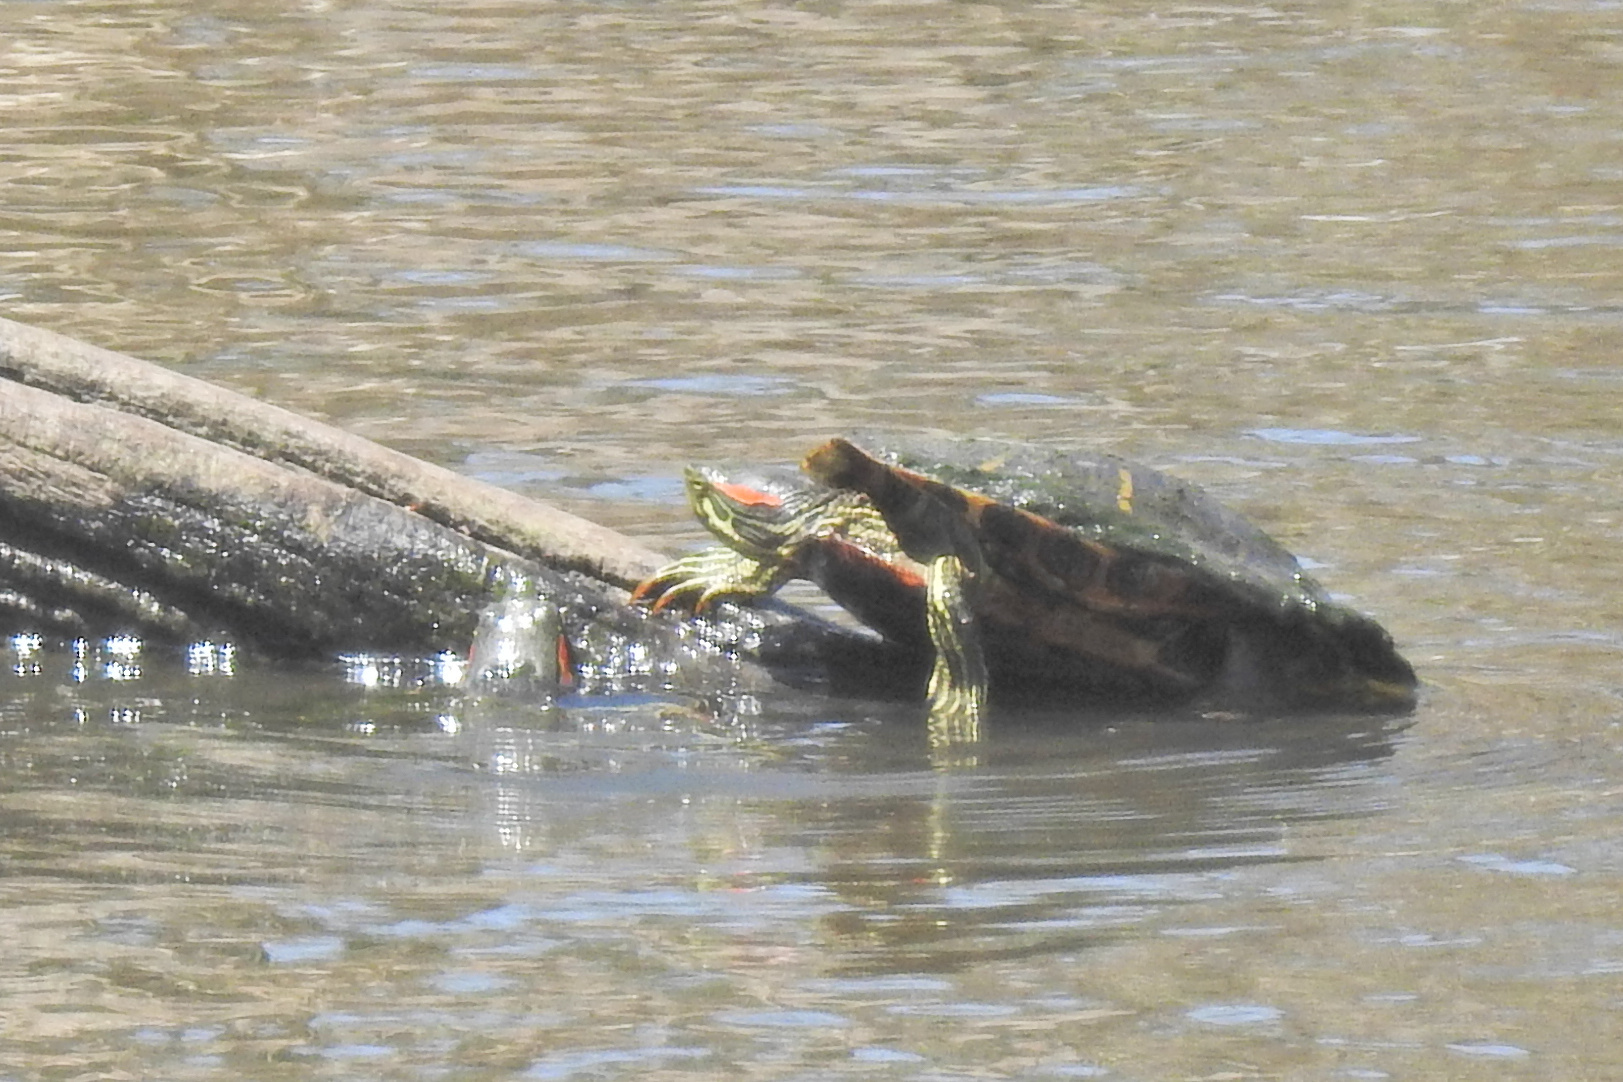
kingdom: Animalia
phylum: Chordata
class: Testudines
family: Emydidae
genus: Trachemys
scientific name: Trachemys scripta
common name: Slider
